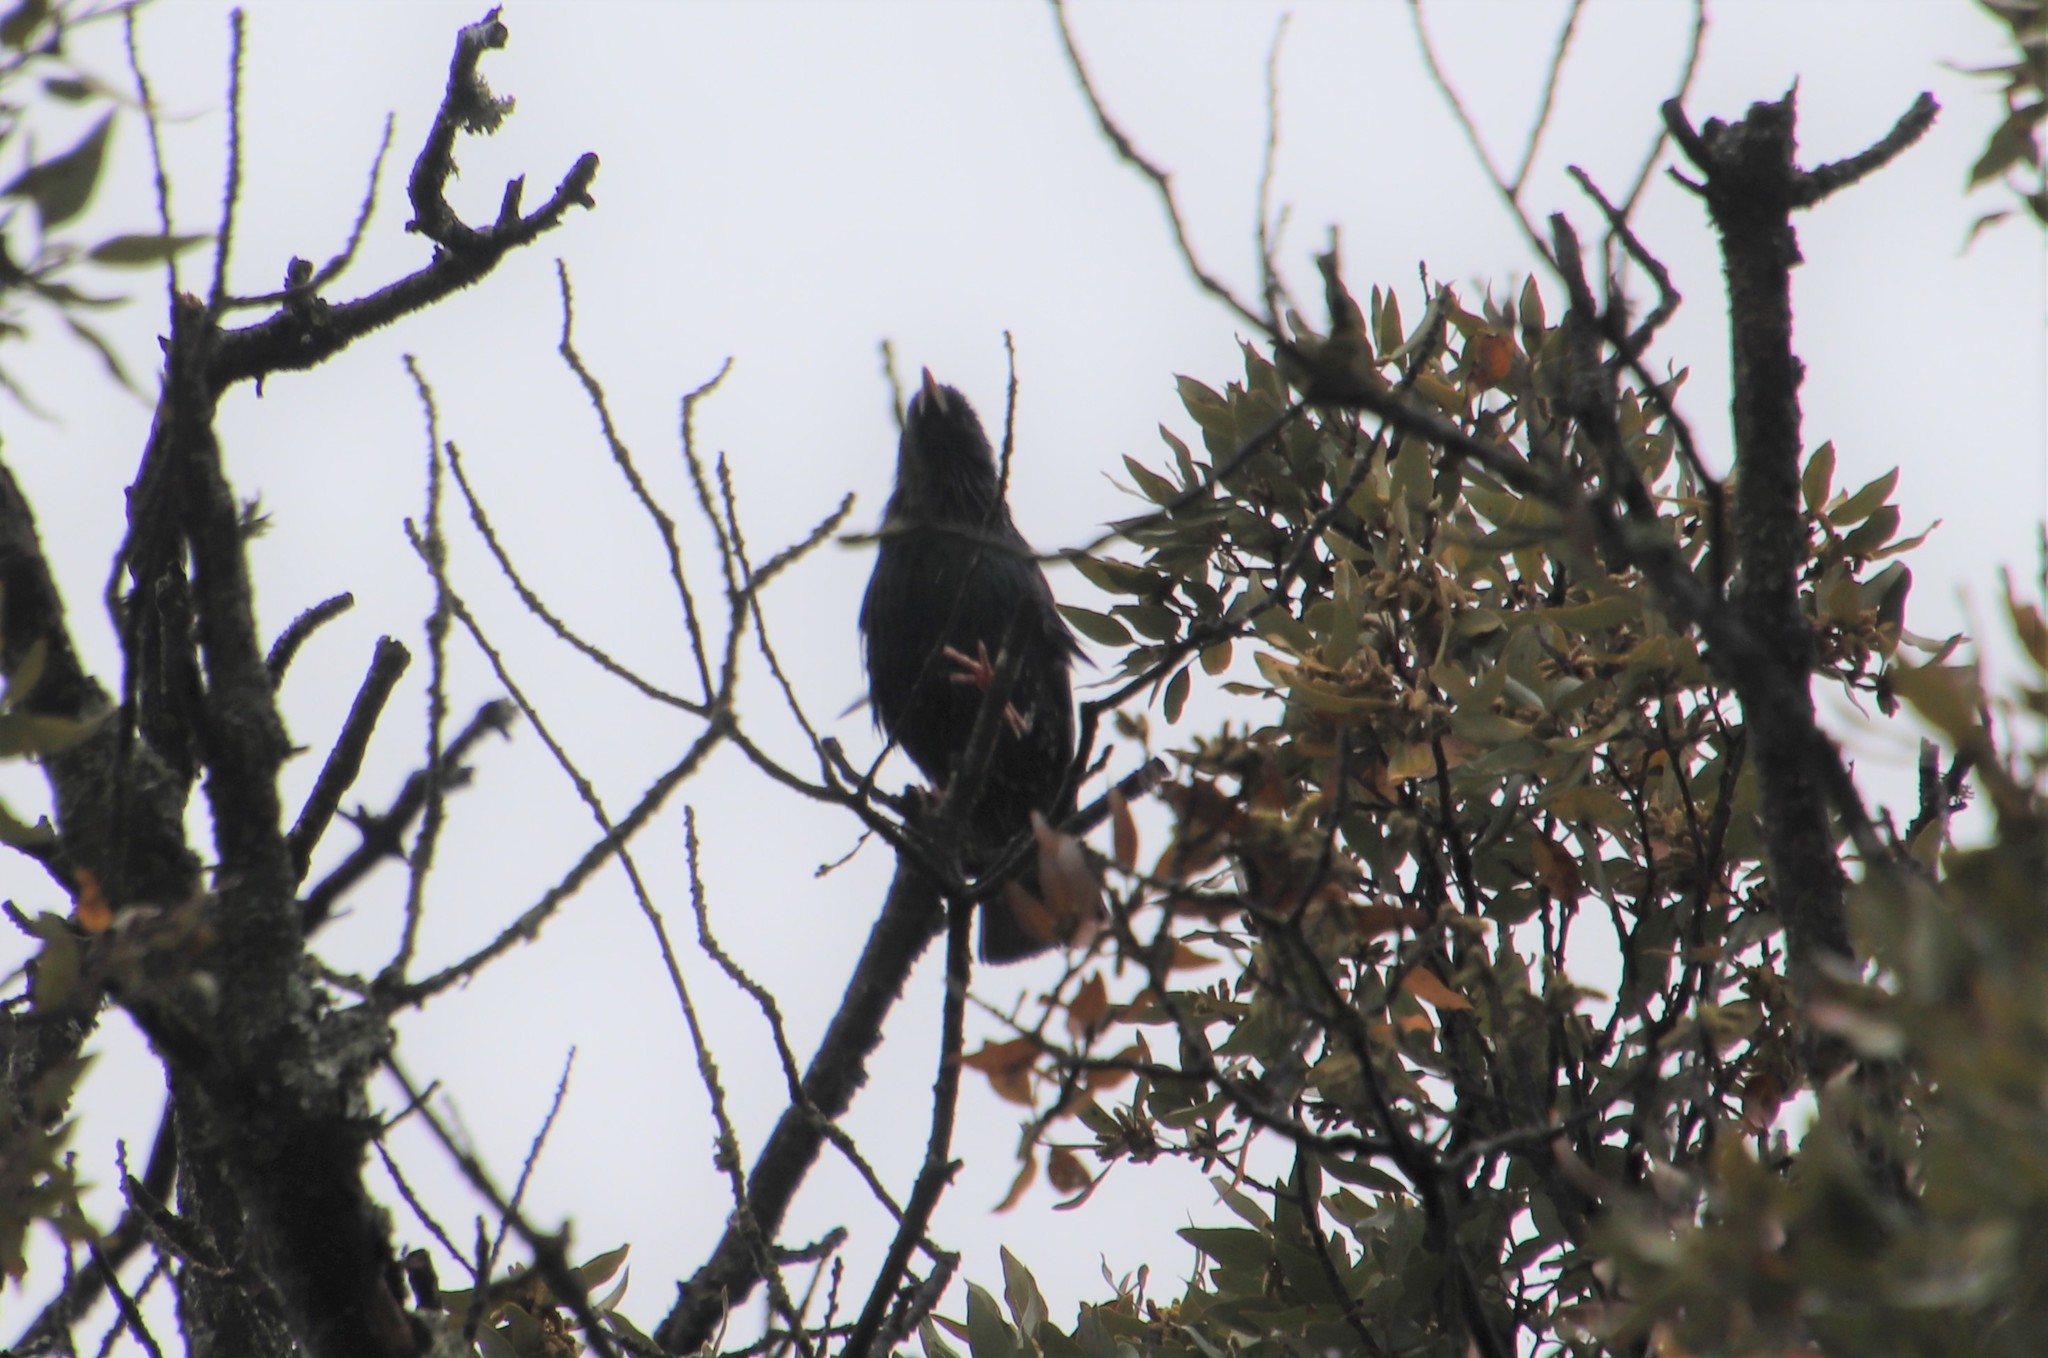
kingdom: Animalia
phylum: Chordata
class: Aves
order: Passeriformes
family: Sturnidae
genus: Sturnus
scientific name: Sturnus vulgaris
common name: Common starling
